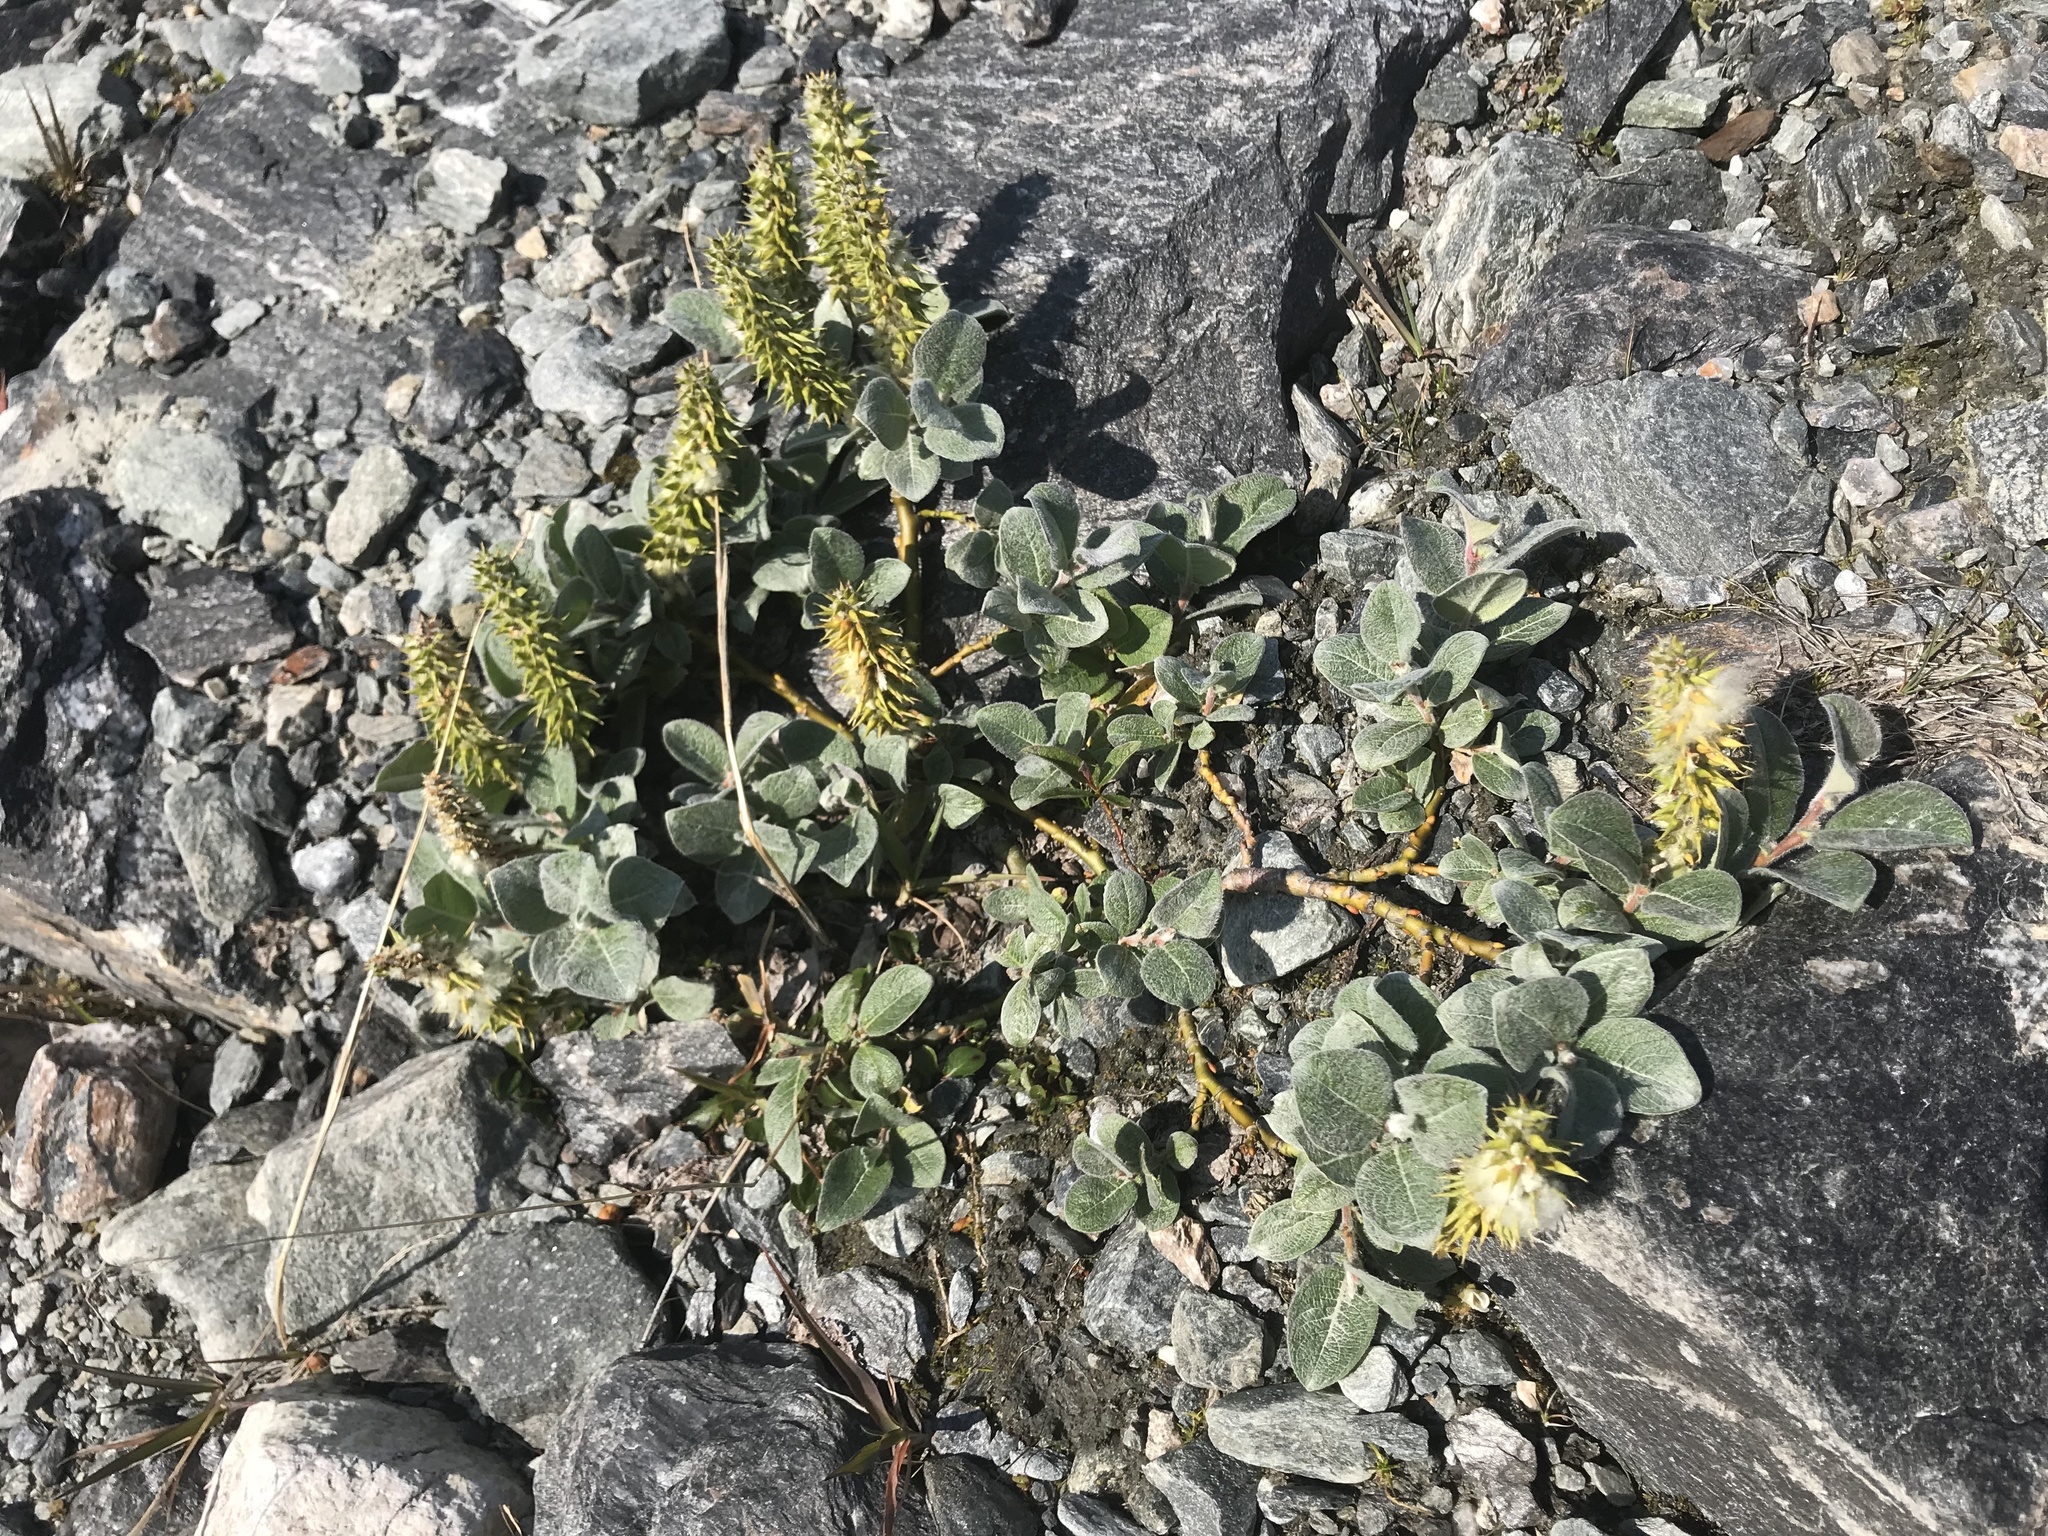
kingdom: Plantae
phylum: Tracheophyta
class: Magnoliopsida
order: Malpighiales
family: Salicaceae
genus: Salix
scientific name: Salix lanata
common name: Woolly willow
